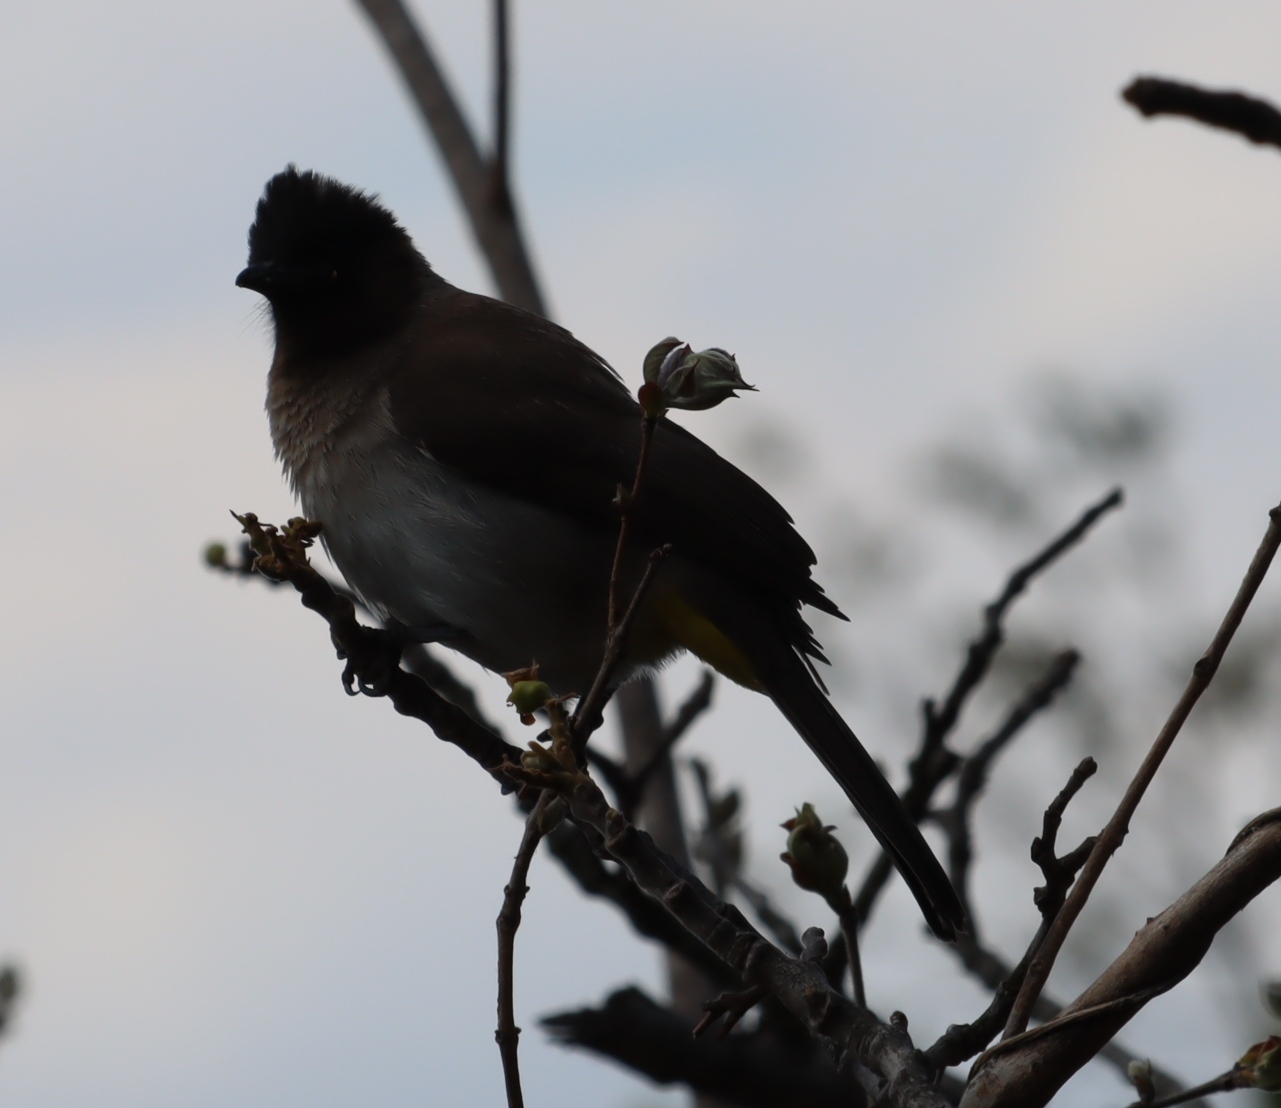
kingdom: Animalia
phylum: Chordata
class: Aves
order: Passeriformes
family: Pycnonotidae
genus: Pycnonotus
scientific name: Pycnonotus barbatus
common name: Common bulbul
